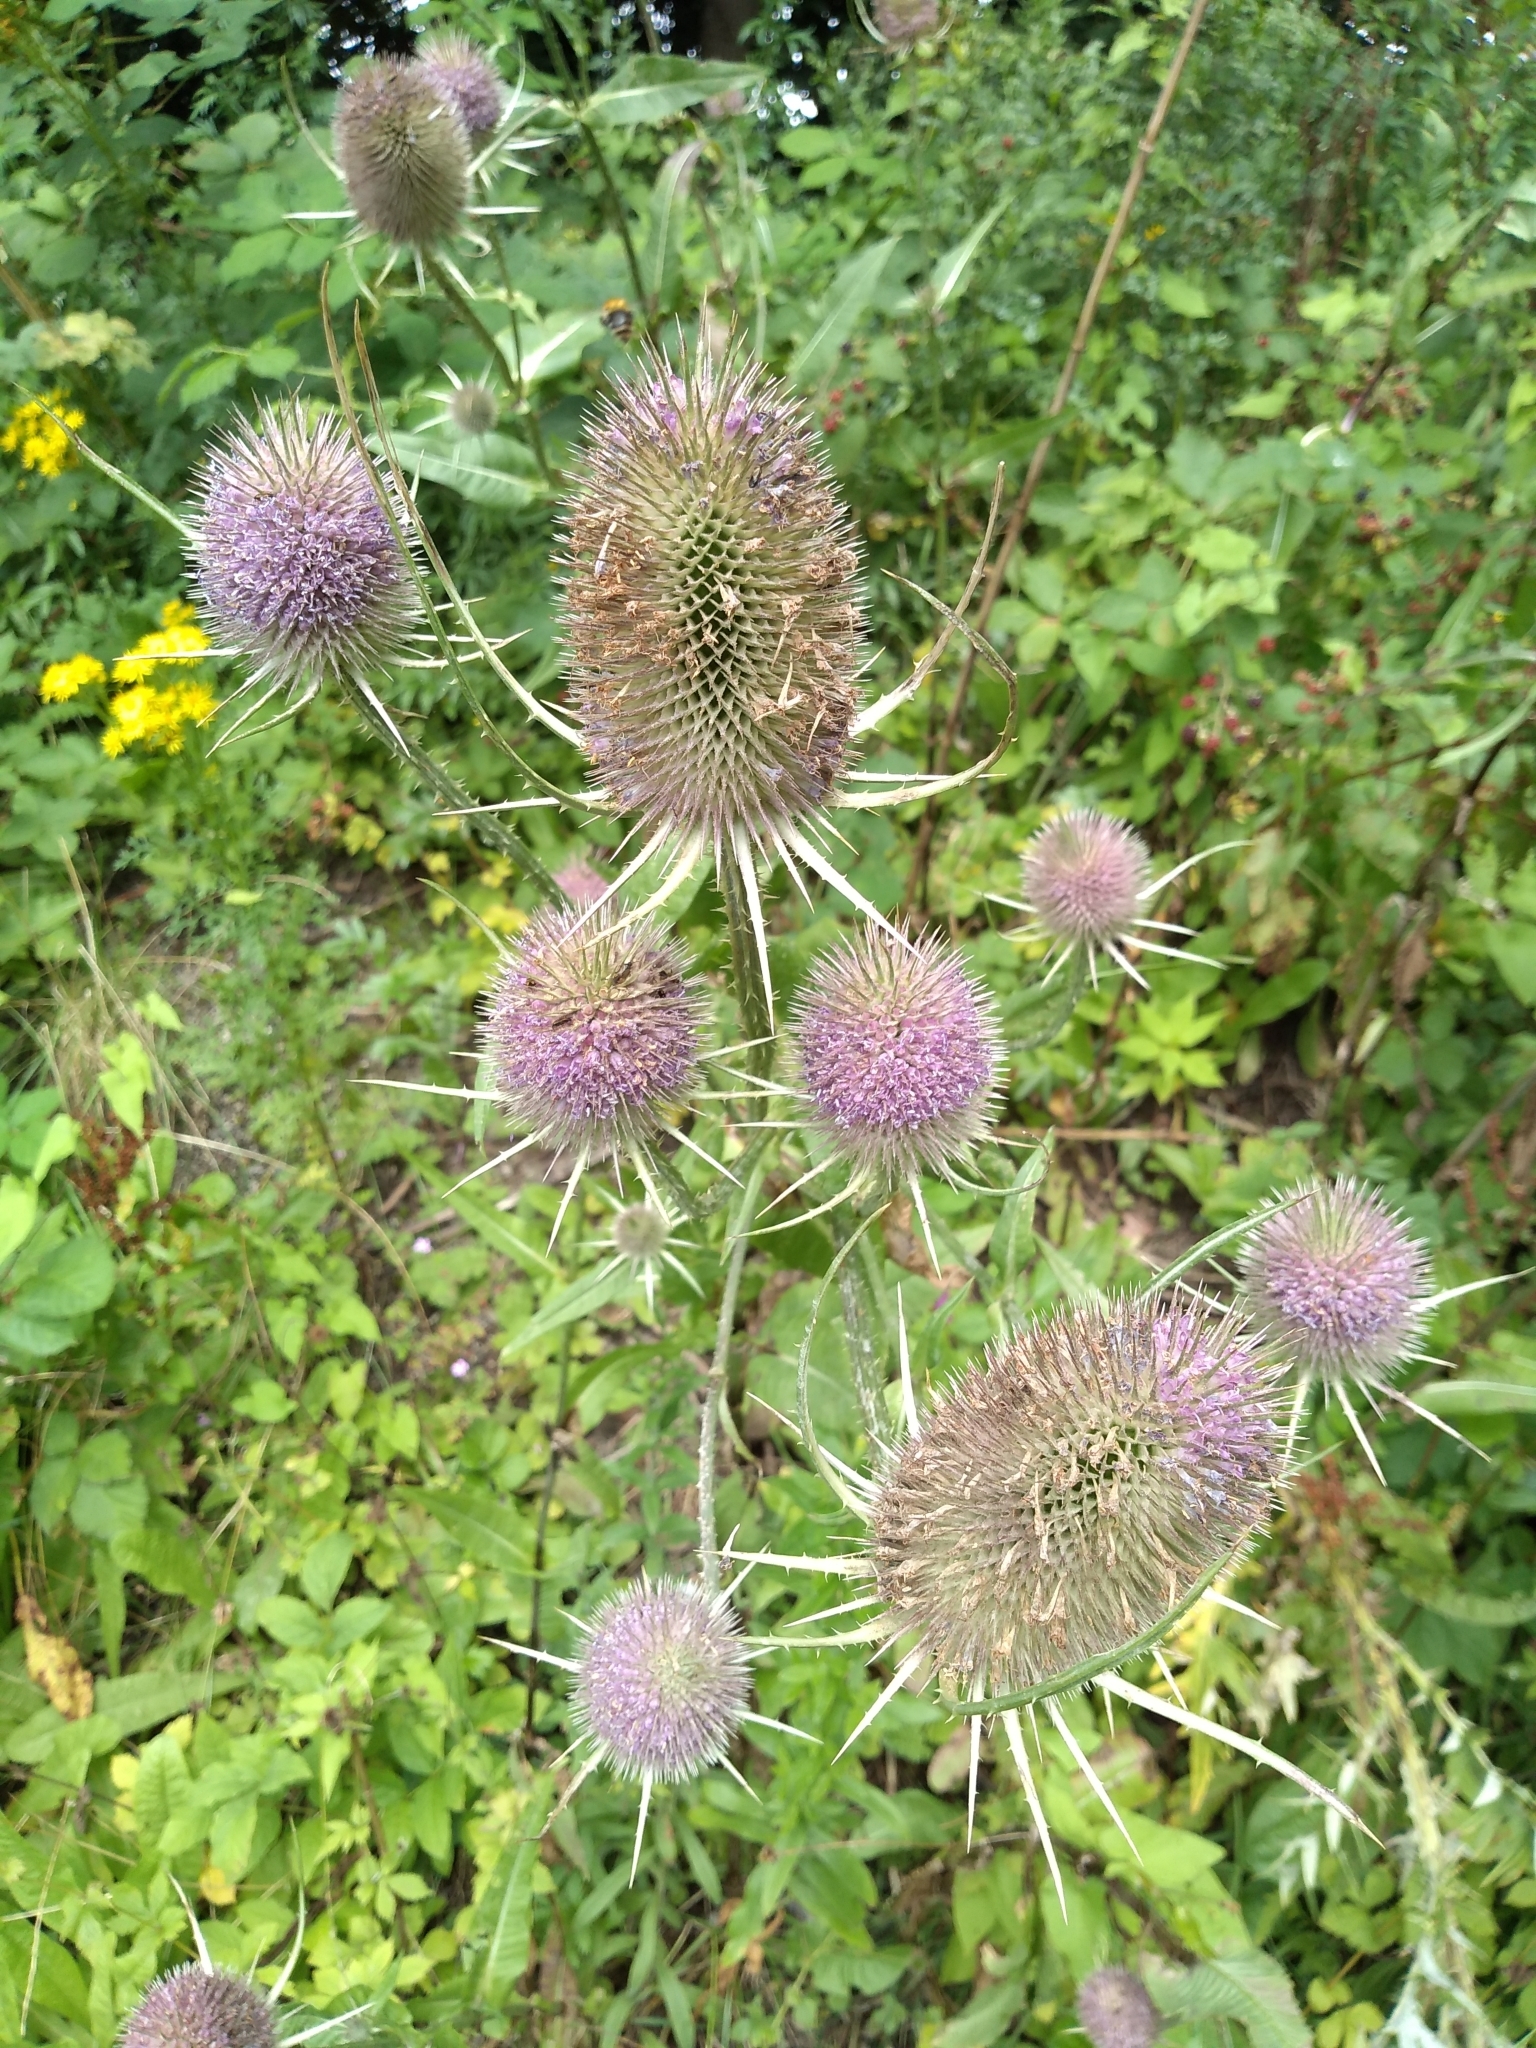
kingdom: Plantae
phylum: Tracheophyta
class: Magnoliopsida
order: Dipsacales
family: Caprifoliaceae
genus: Dipsacus
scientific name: Dipsacus fullonum
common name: Teasel
